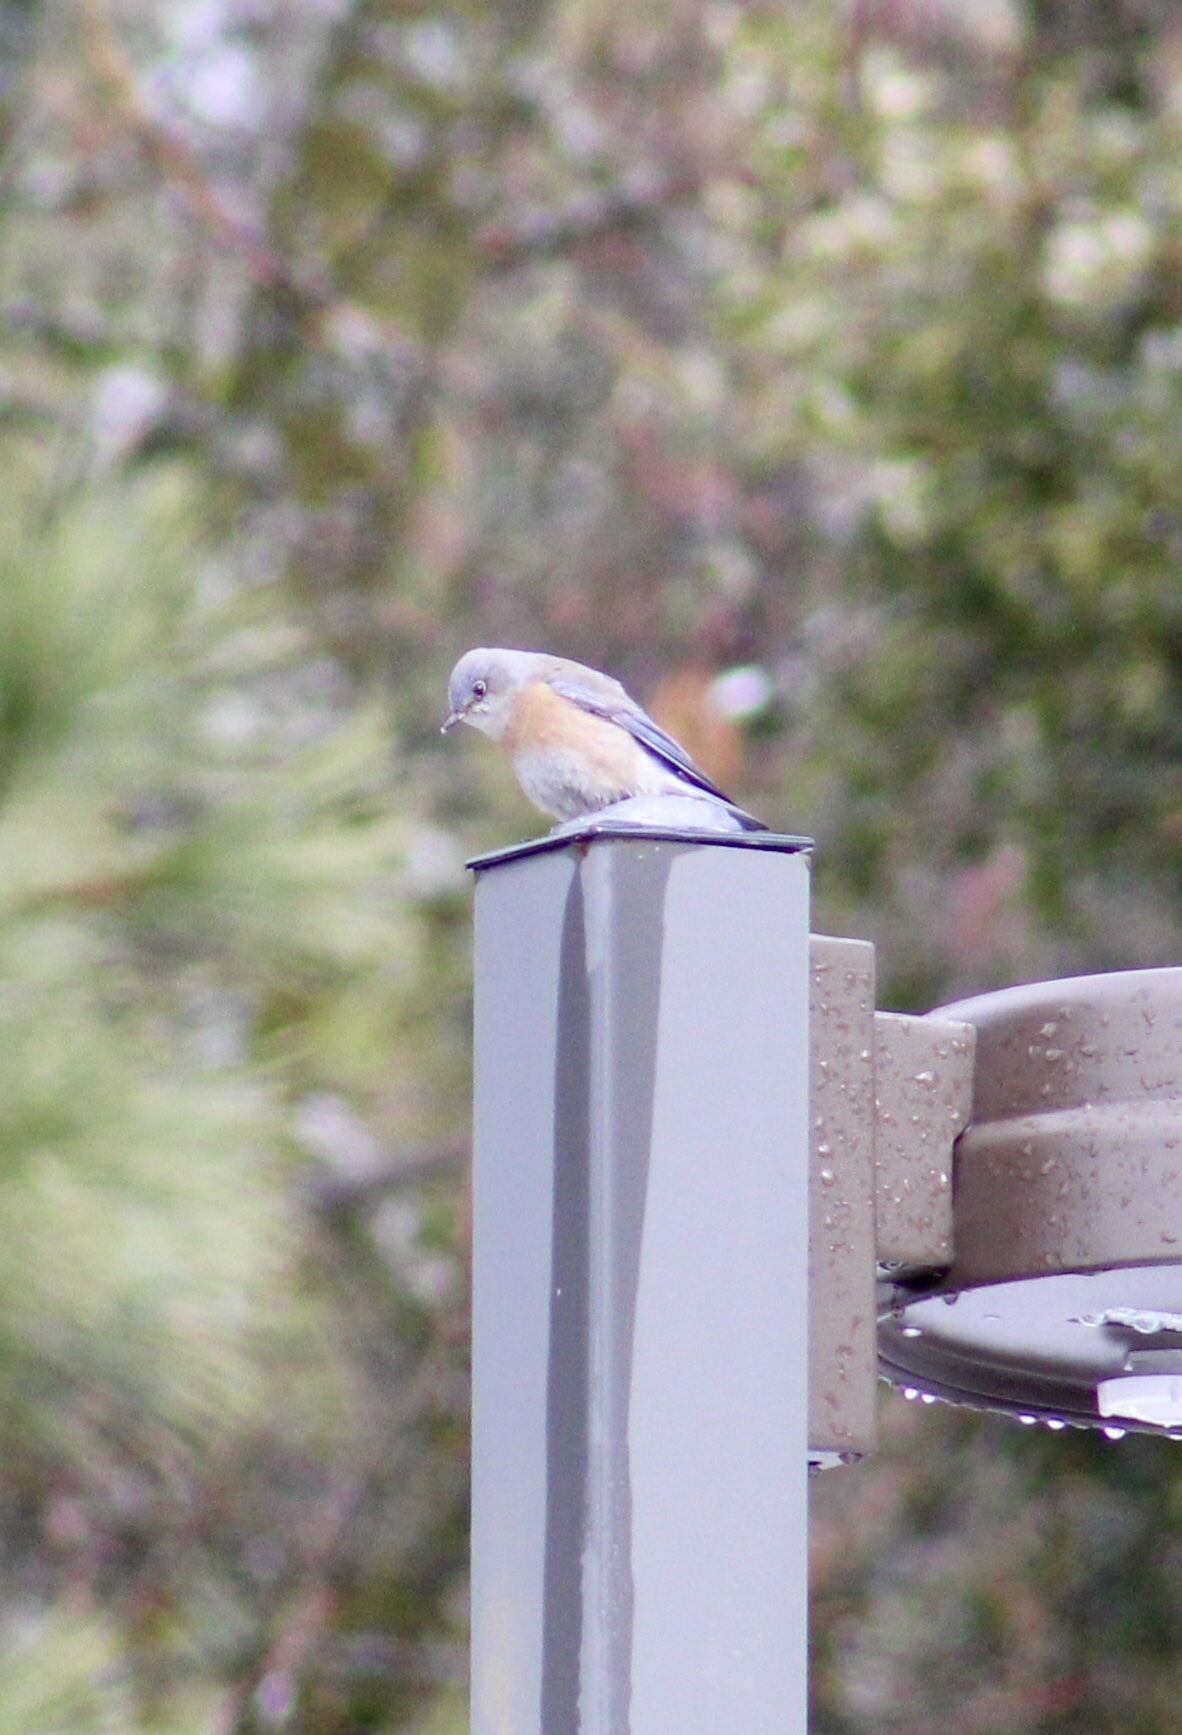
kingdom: Animalia
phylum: Chordata
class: Aves
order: Passeriformes
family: Turdidae
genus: Sialia
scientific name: Sialia mexicana
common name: Western bluebird
